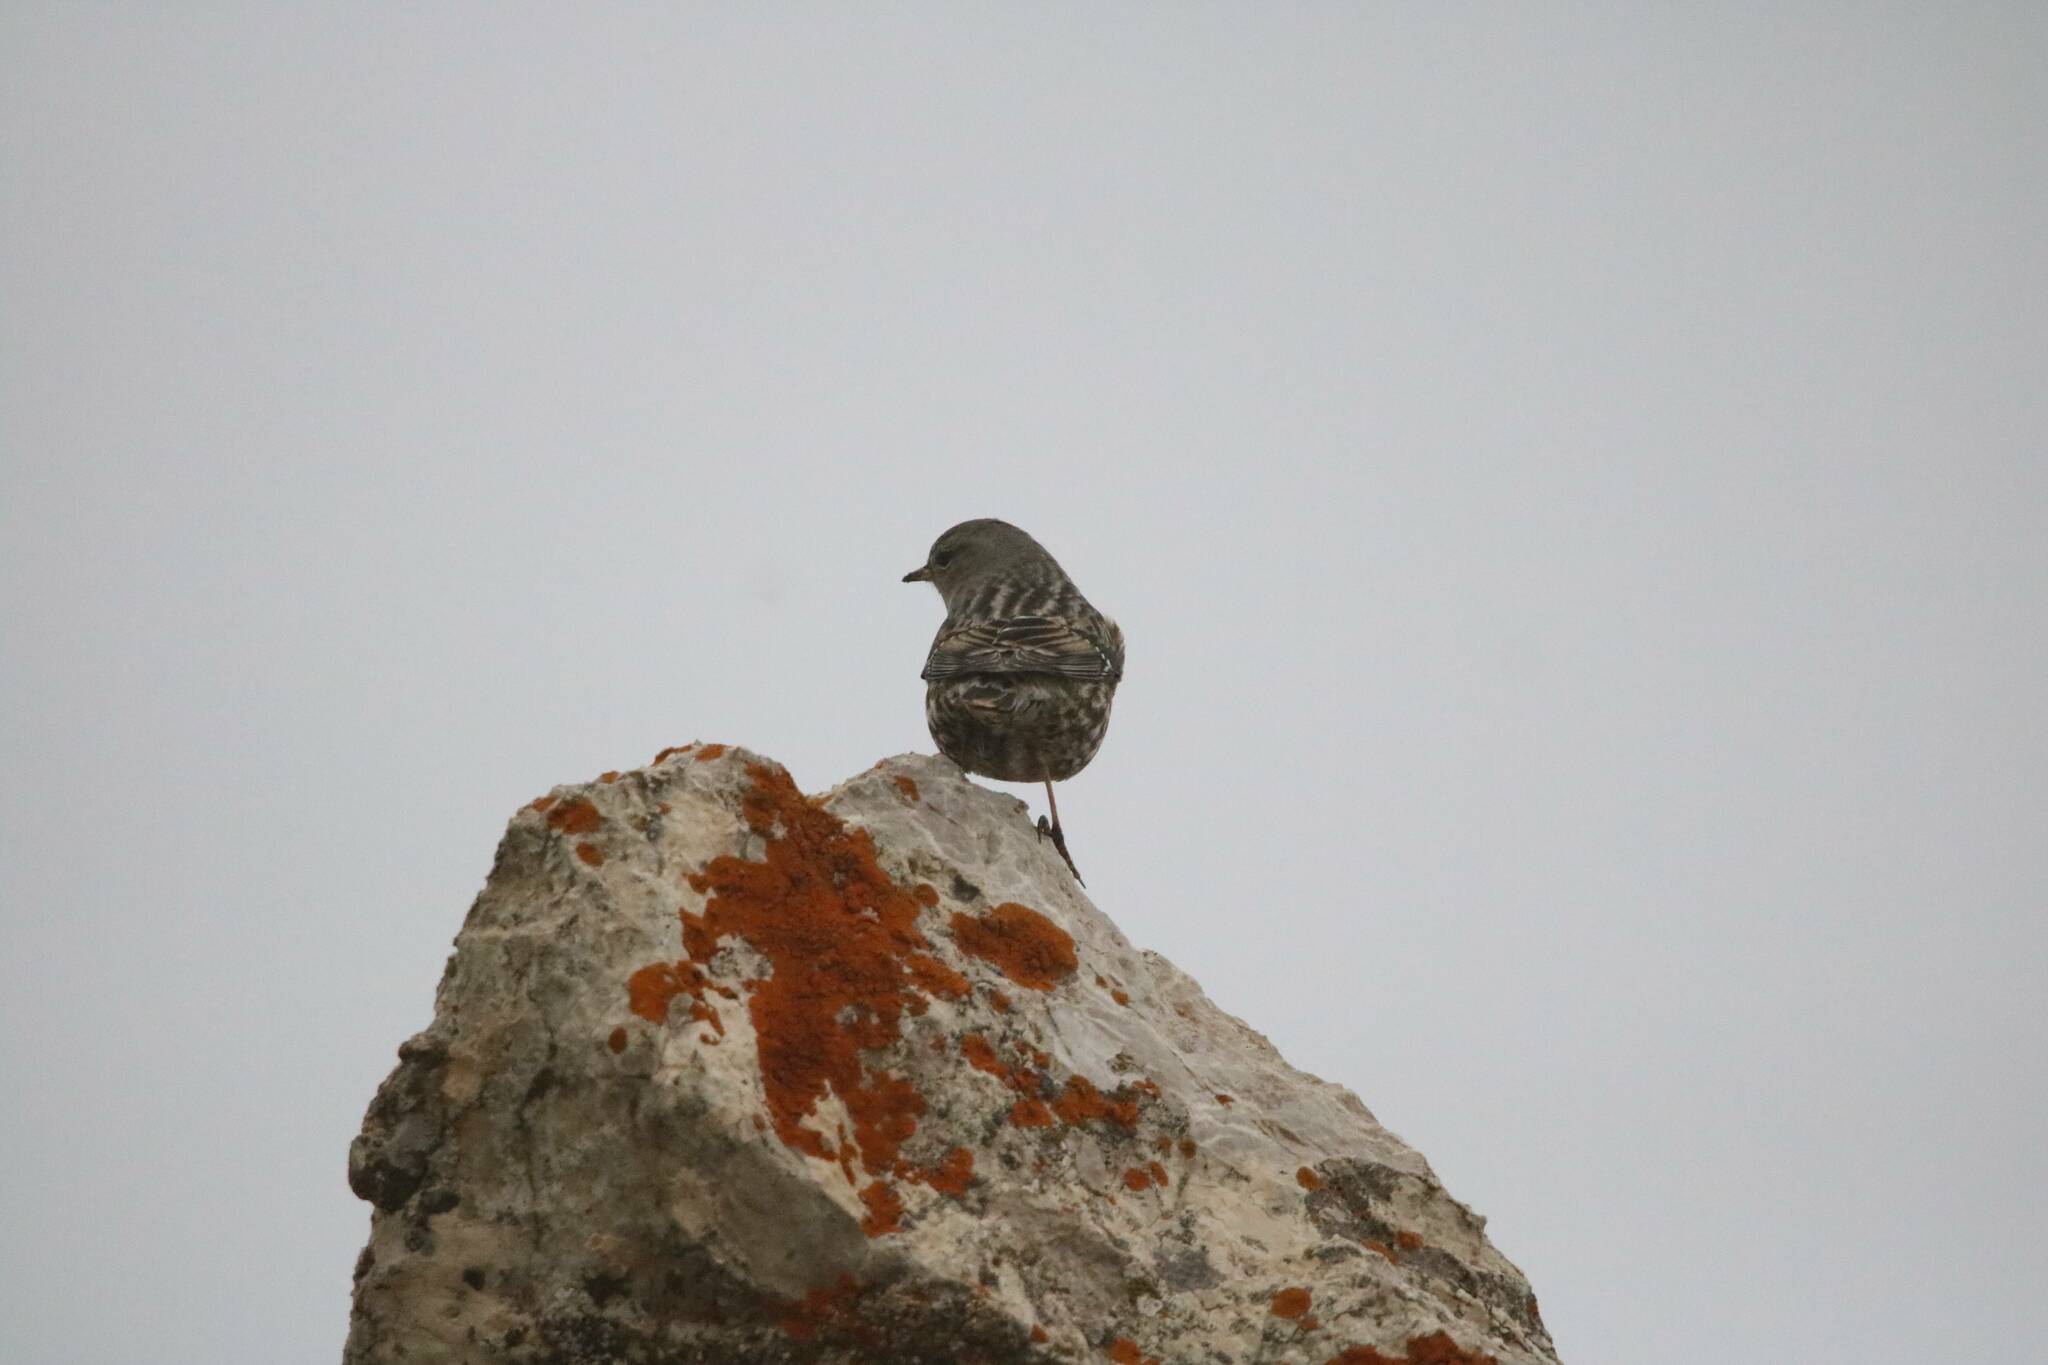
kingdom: Animalia
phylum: Chordata
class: Aves
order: Passeriformes
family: Prunellidae
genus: Prunella
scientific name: Prunella collaris
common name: Alpine accentor
